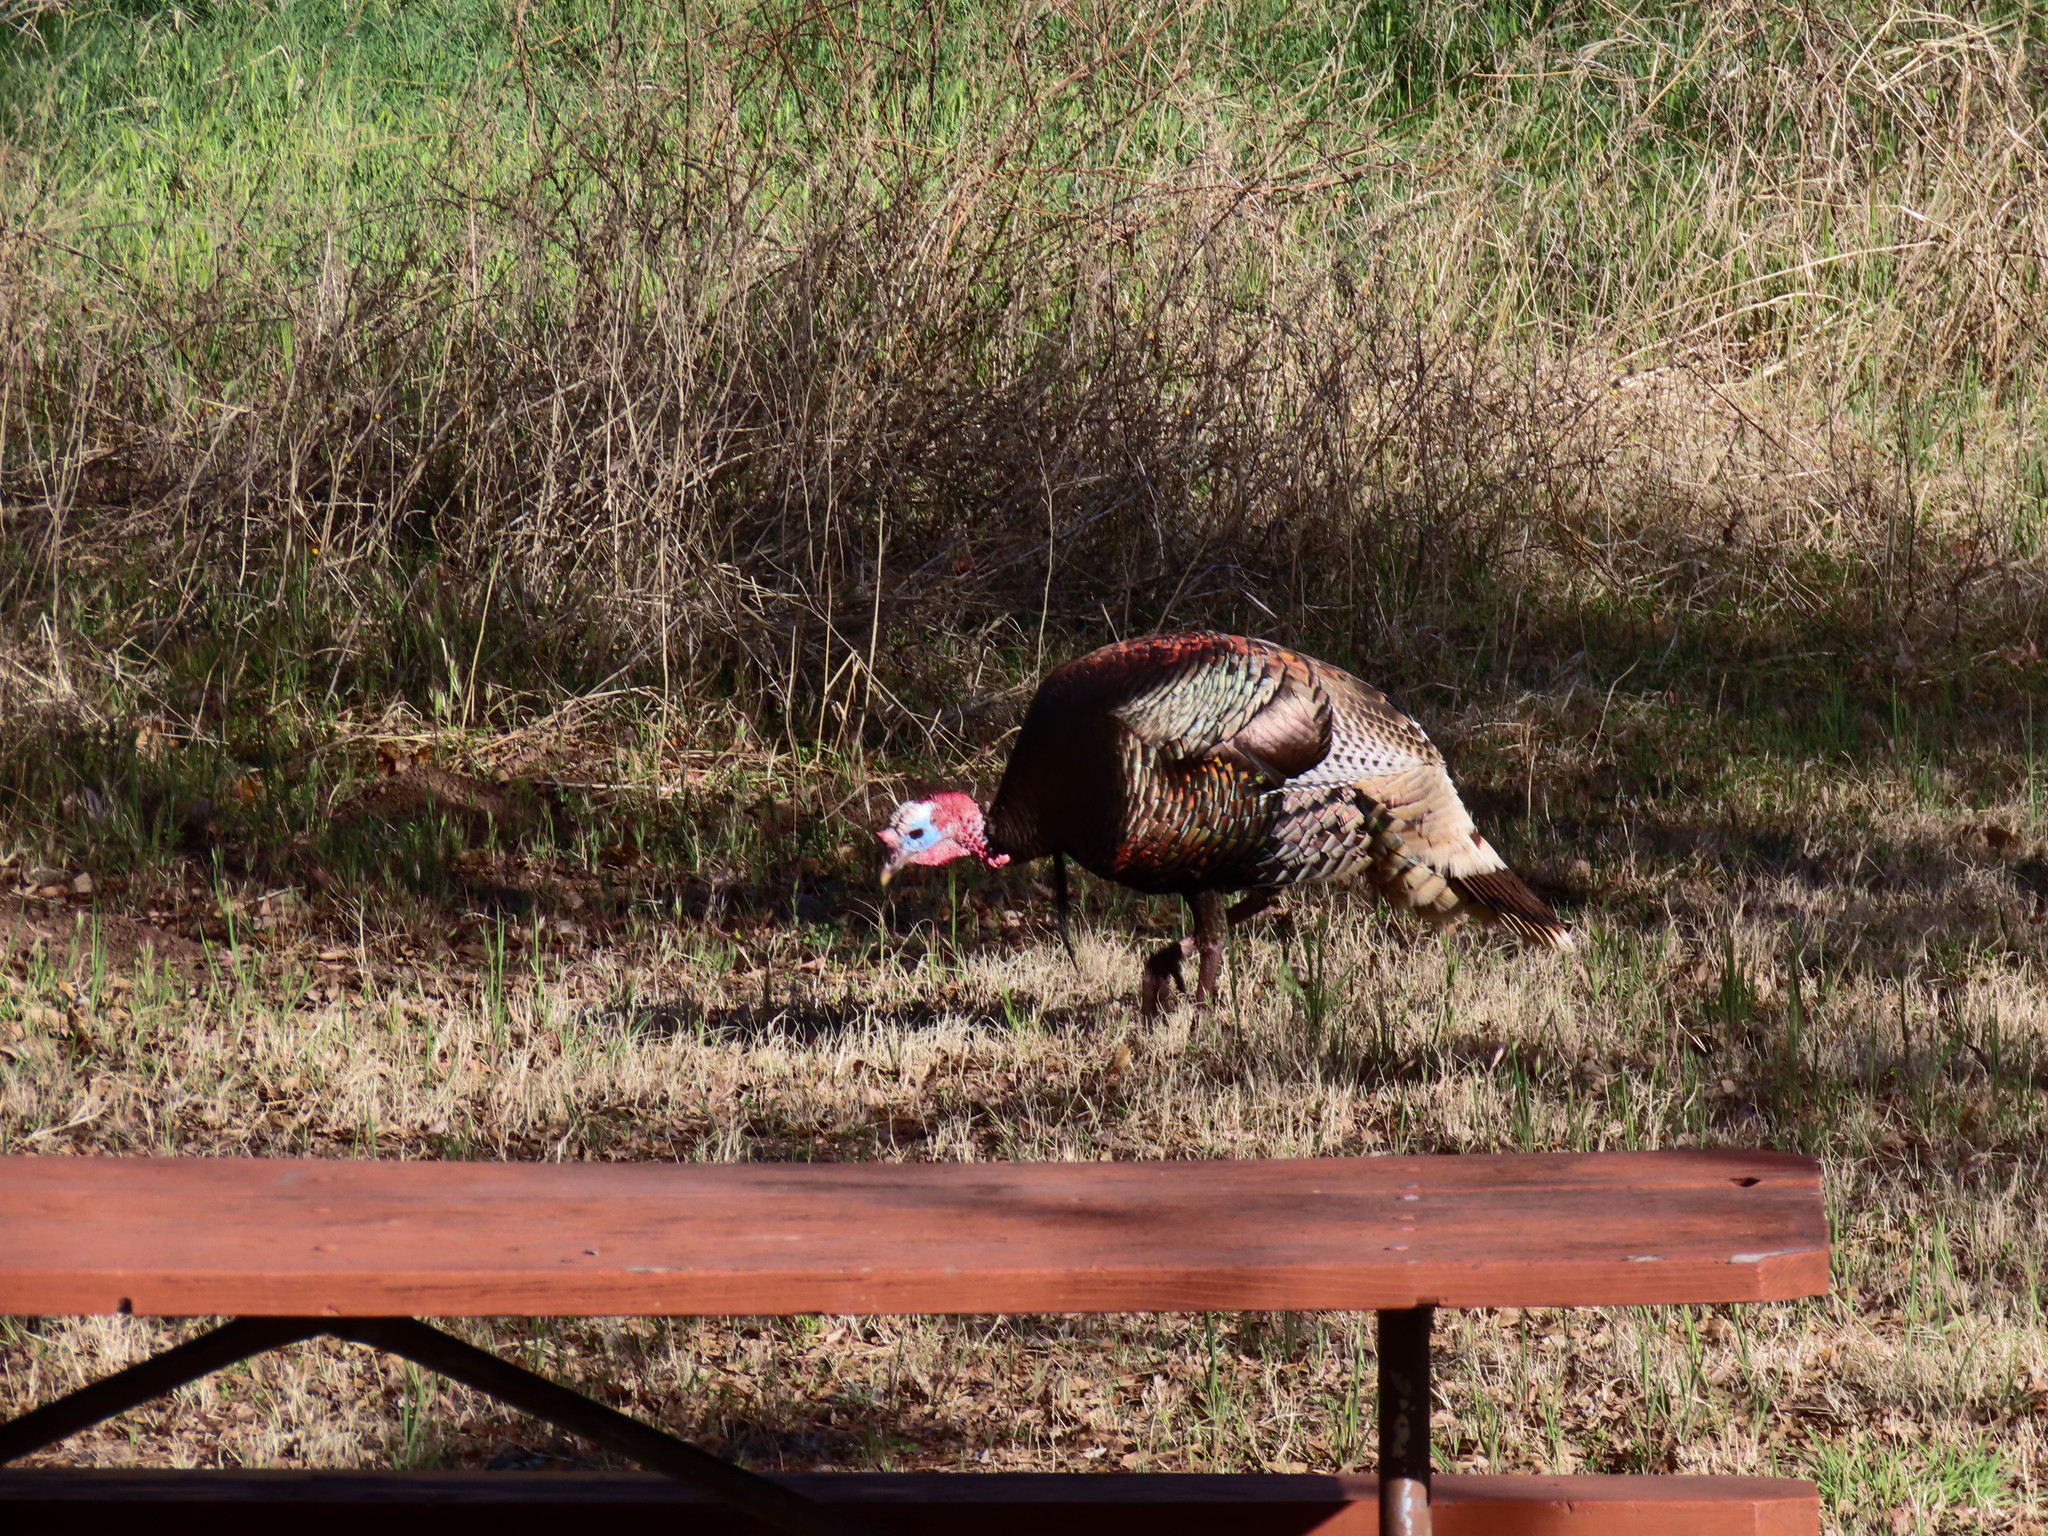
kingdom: Animalia
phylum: Chordata
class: Aves
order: Galliformes
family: Phasianidae
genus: Meleagris
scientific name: Meleagris gallopavo
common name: Wild turkey
